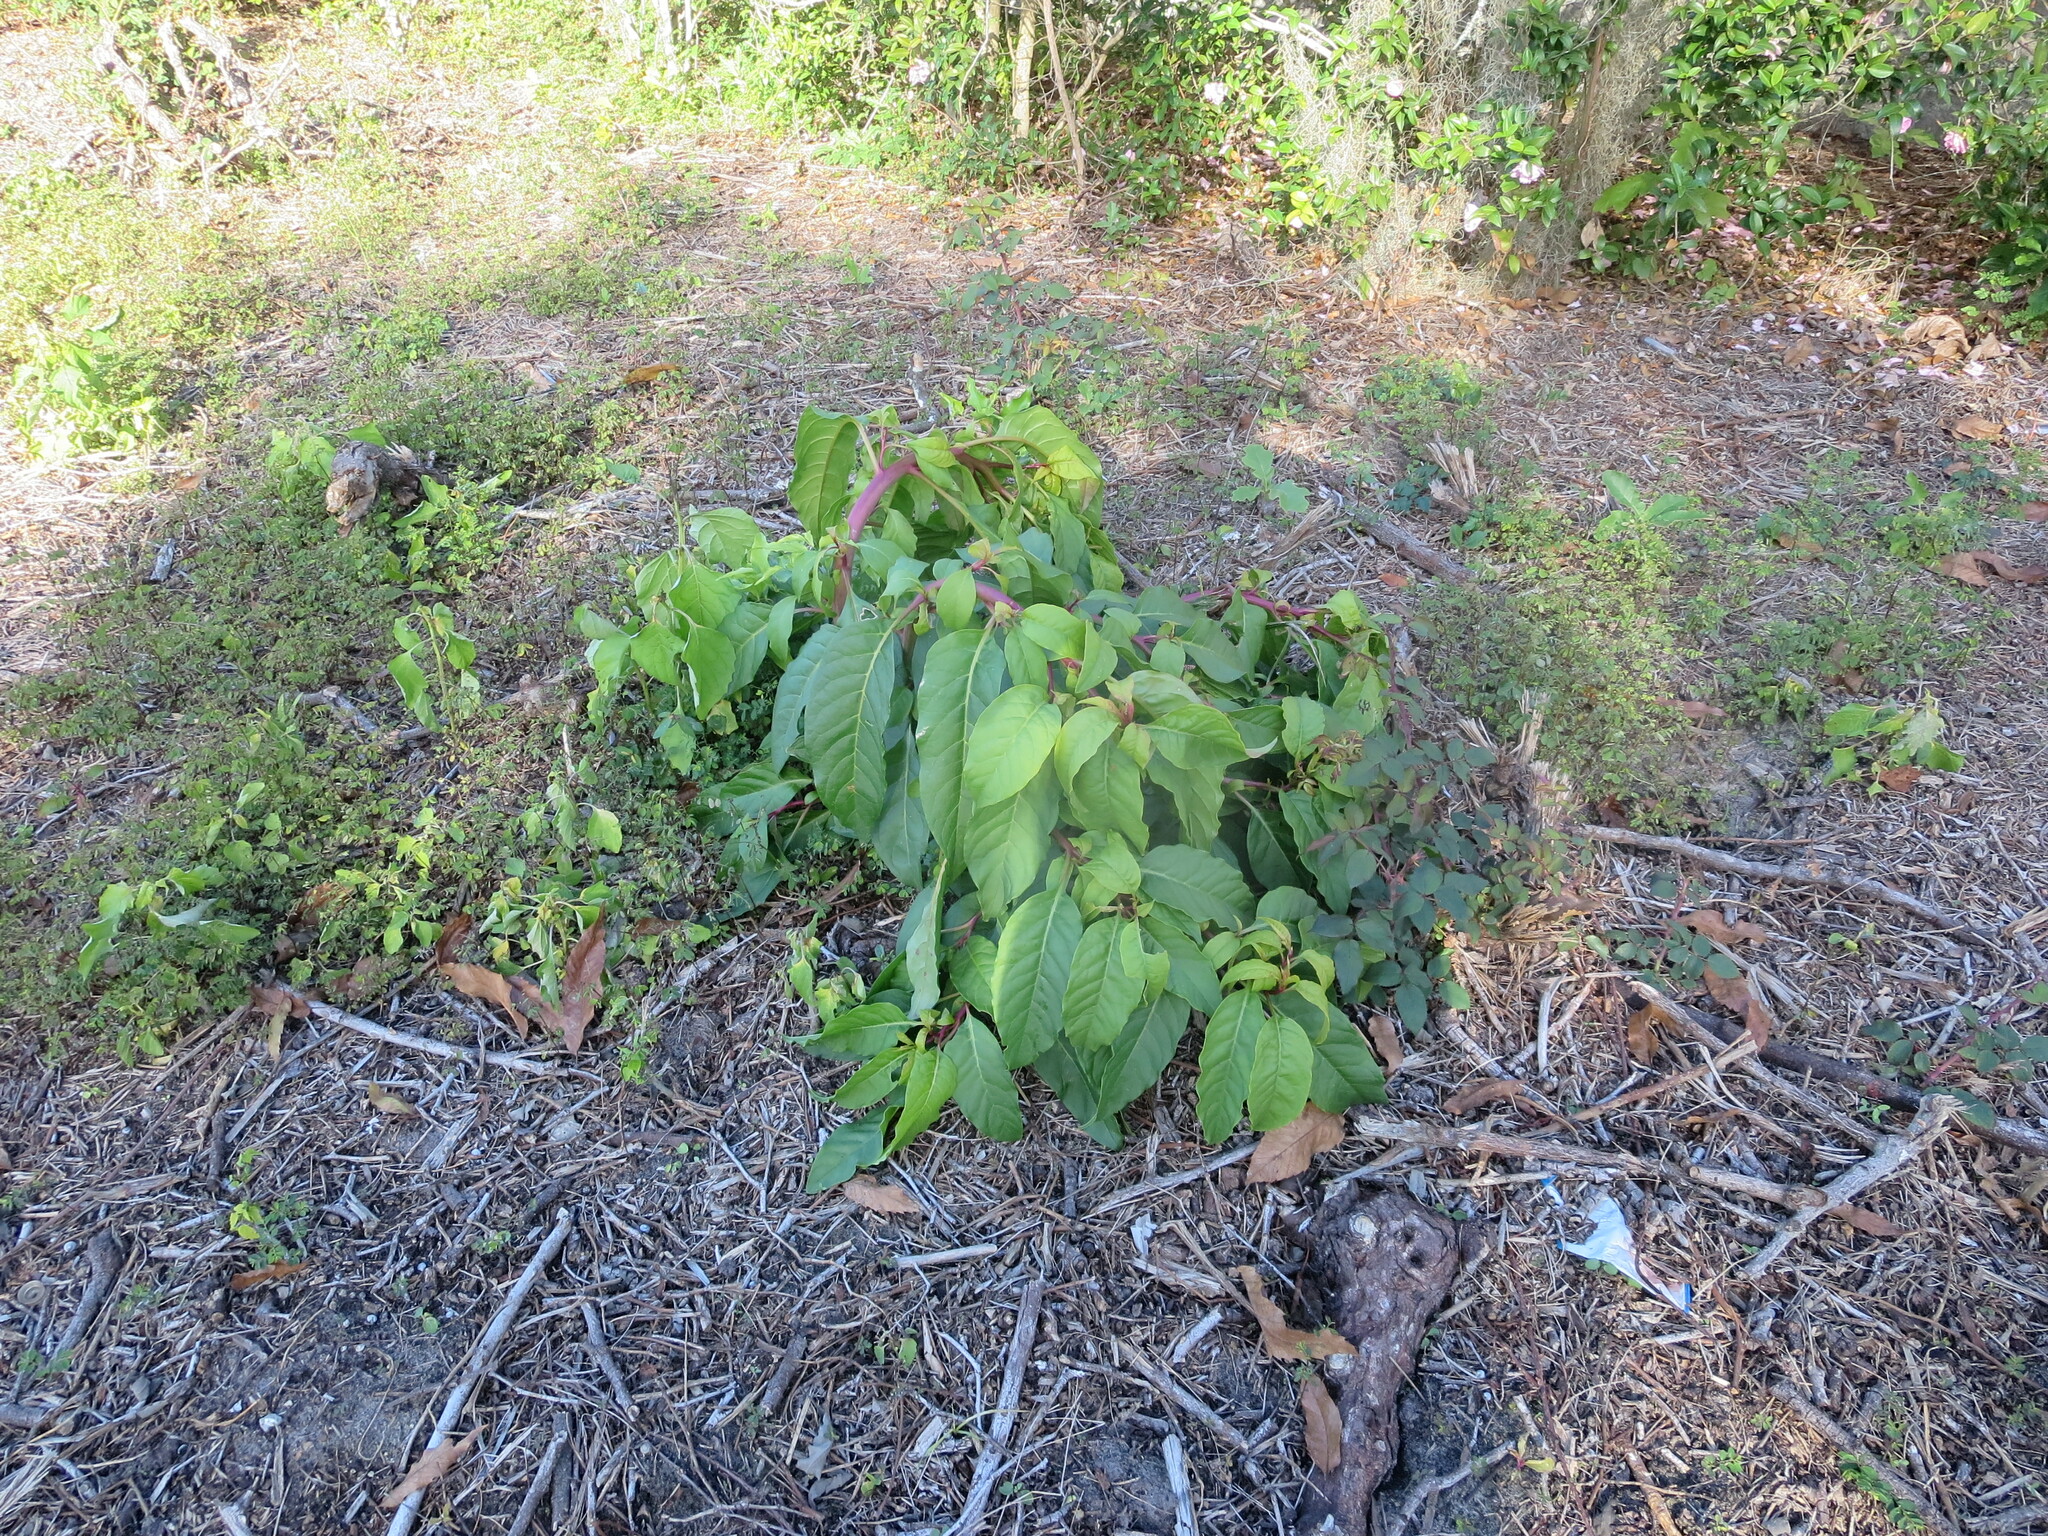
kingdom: Plantae
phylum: Tracheophyta
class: Magnoliopsida
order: Caryophyllales
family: Phytolaccaceae
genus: Phytolacca
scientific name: Phytolacca americana
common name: American pokeweed
